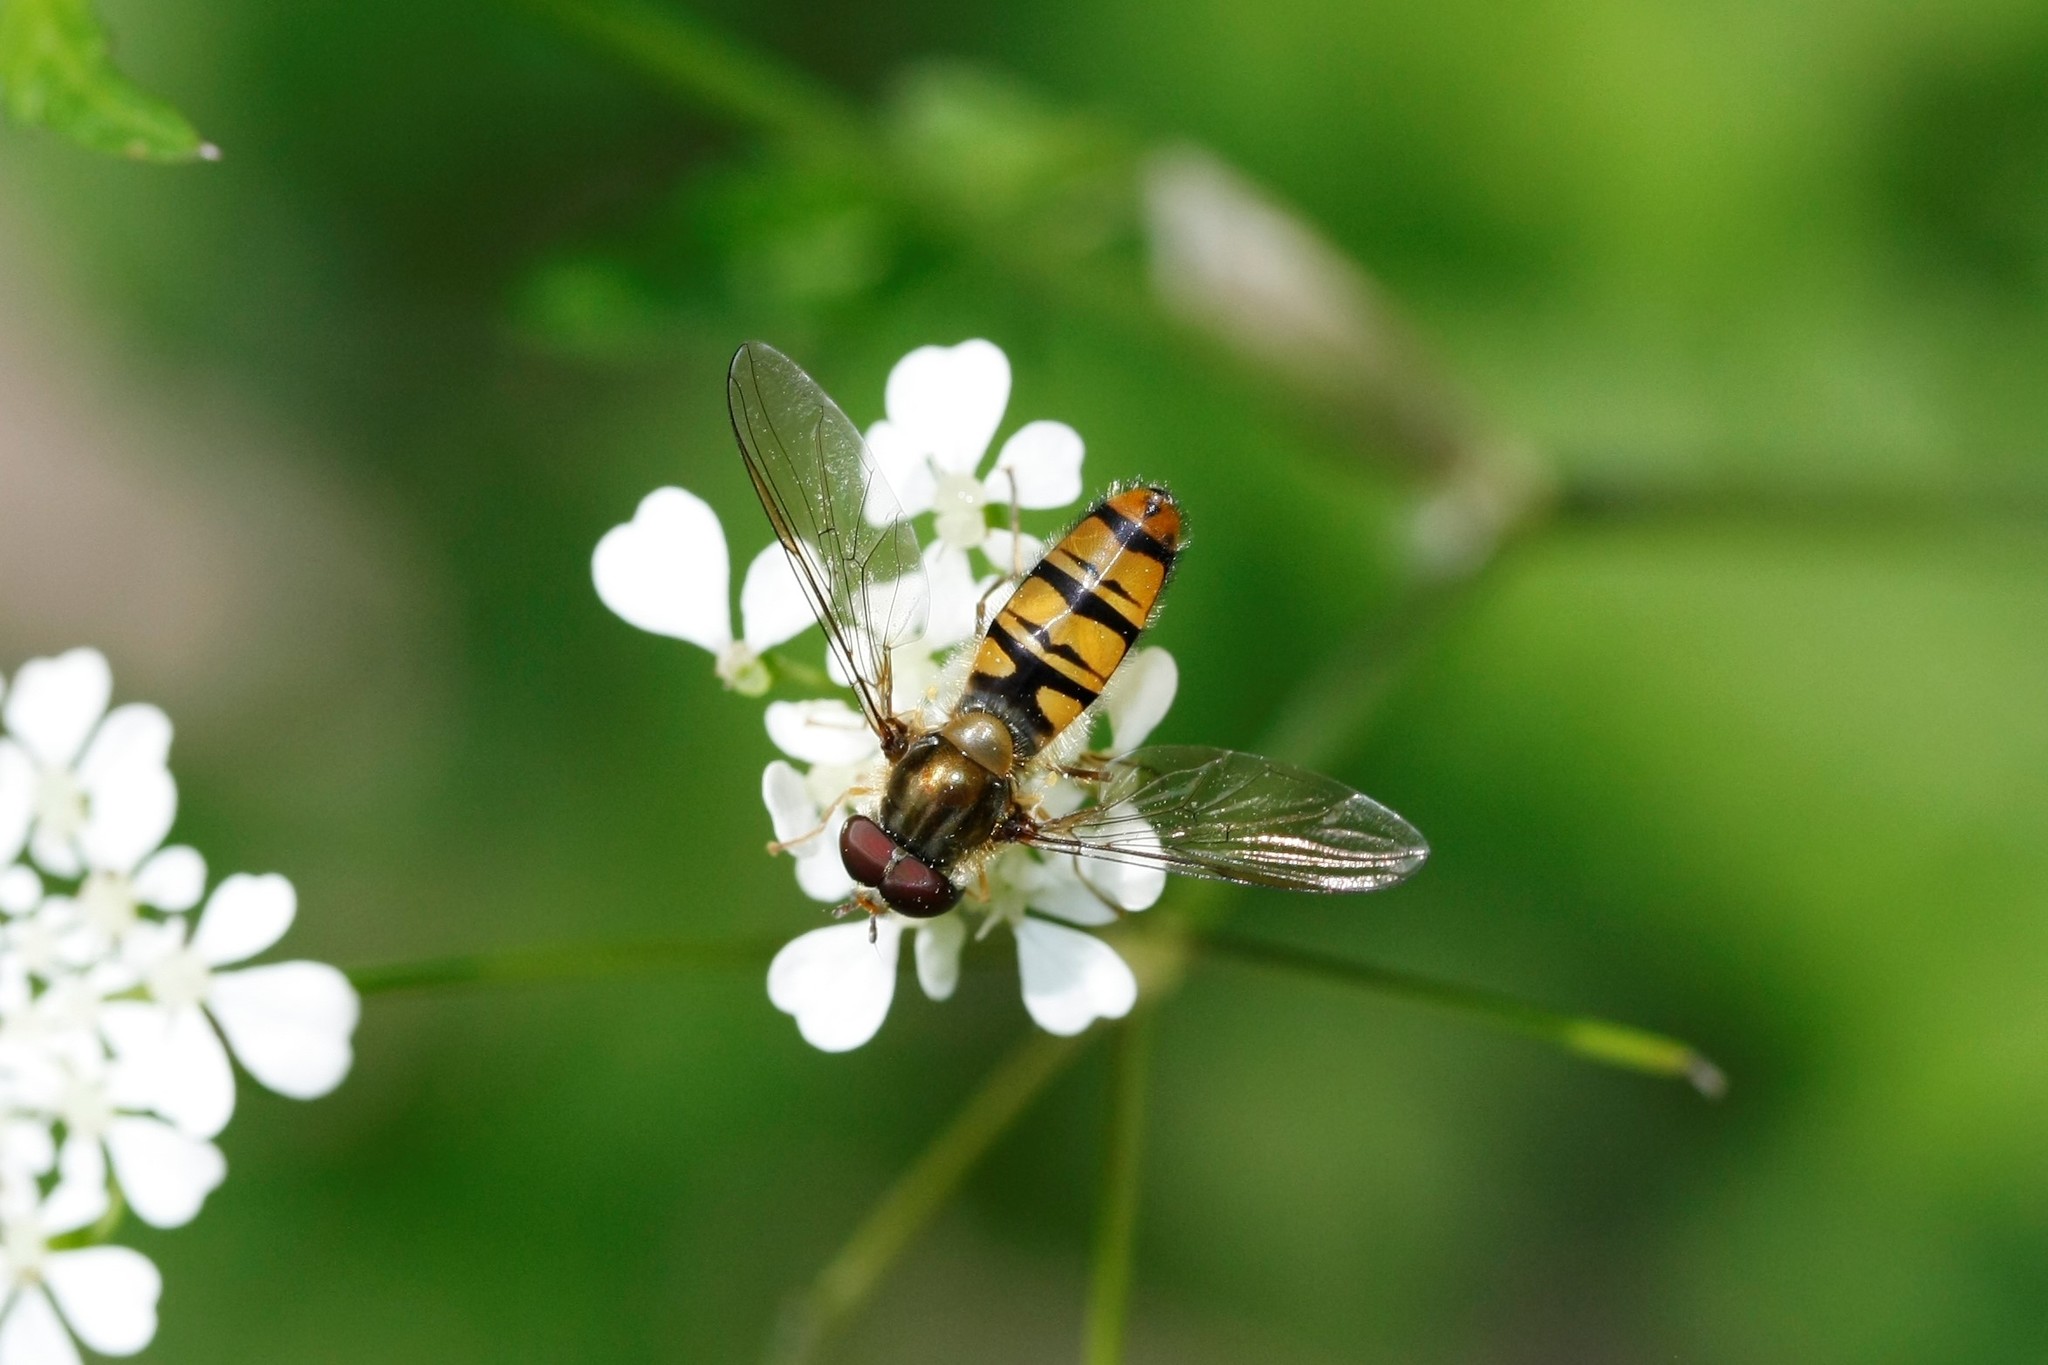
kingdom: Animalia
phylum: Arthropoda
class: Insecta
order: Diptera
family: Syrphidae
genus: Episyrphus
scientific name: Episyrphus balteatus
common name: Marmalade hoverfly
